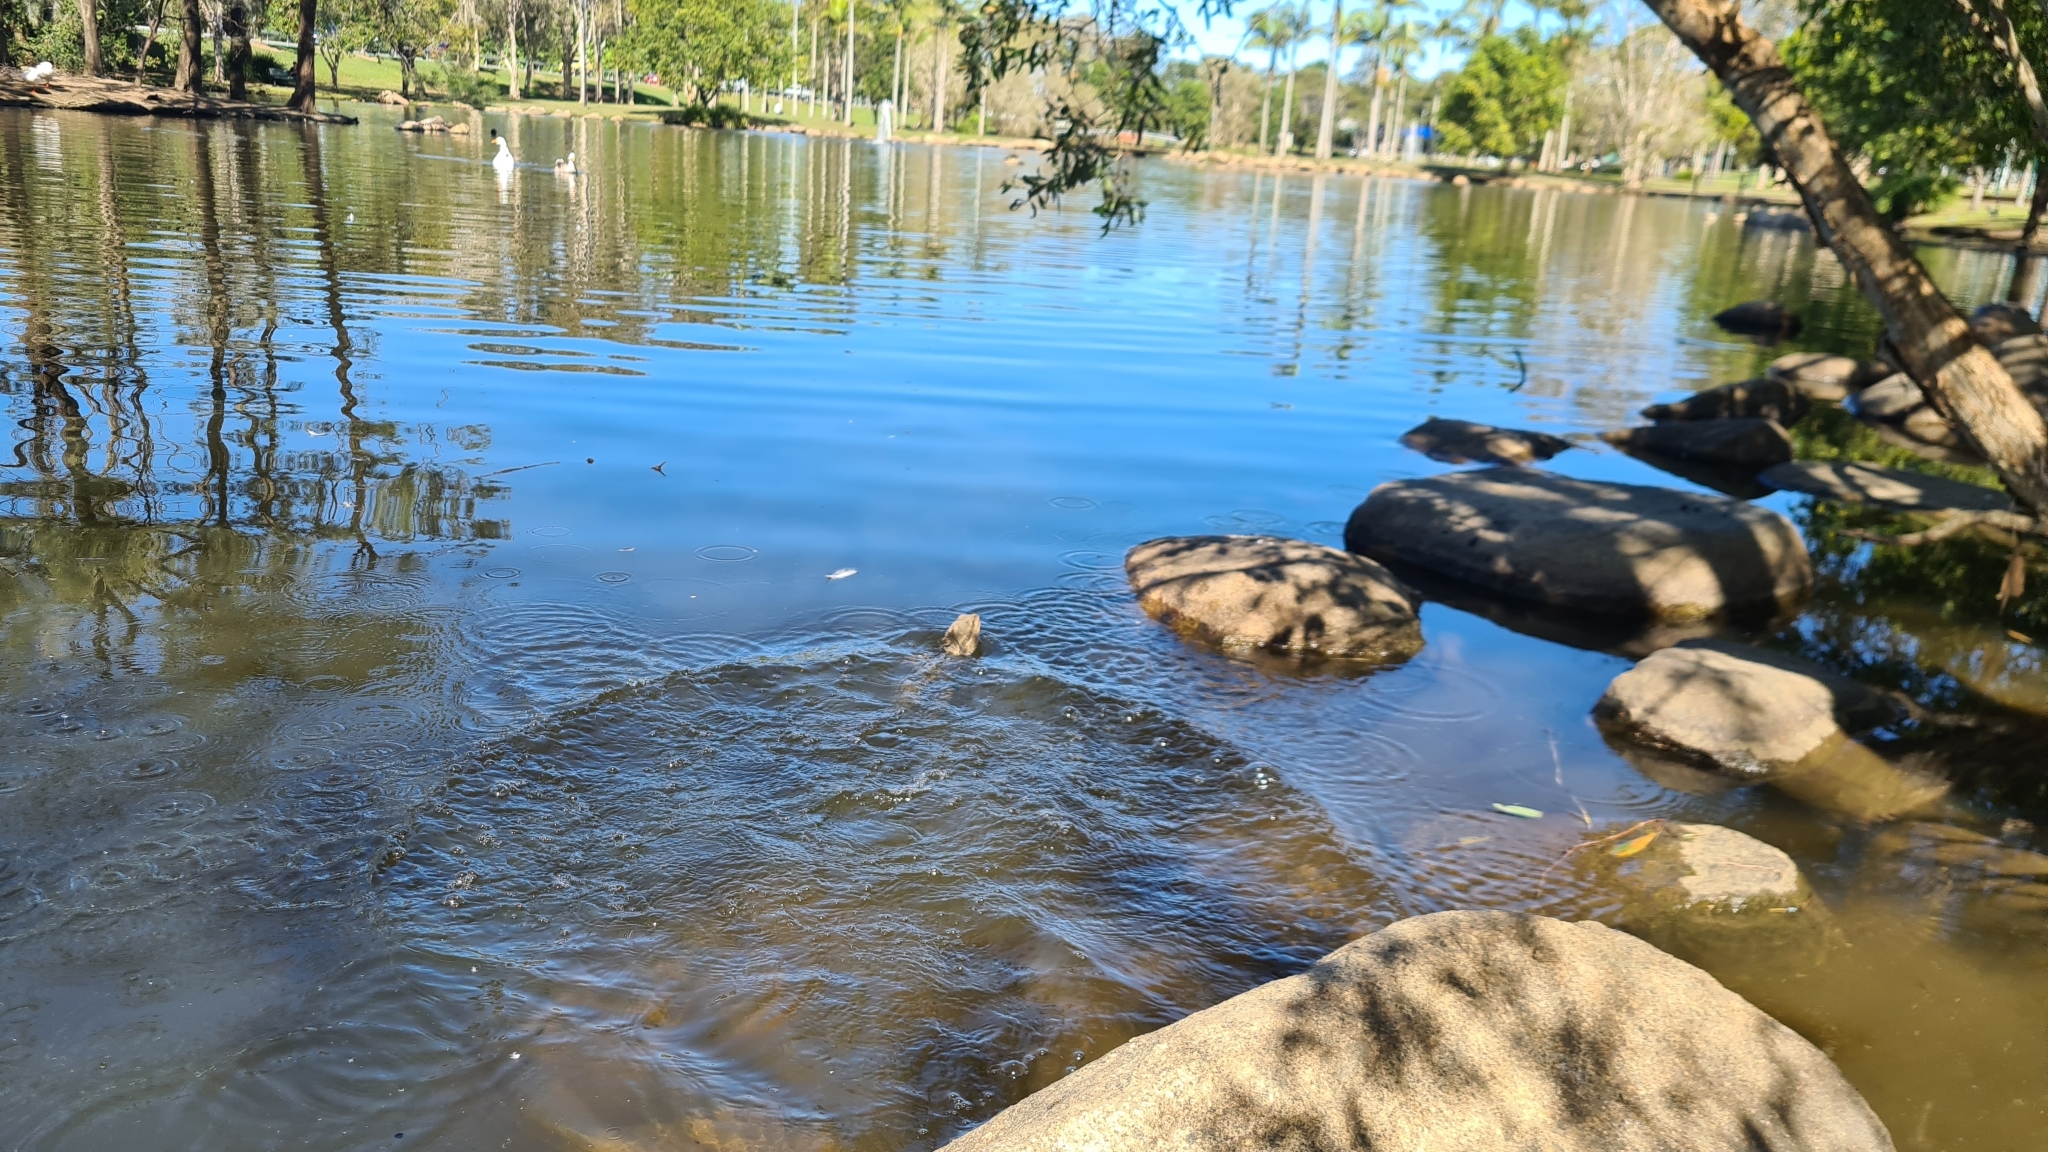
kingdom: Animalia
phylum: Chordata
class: Squamata
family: Agamidae
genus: Intellagama
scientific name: Intellagama lesueurii
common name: Eastern water dragon
